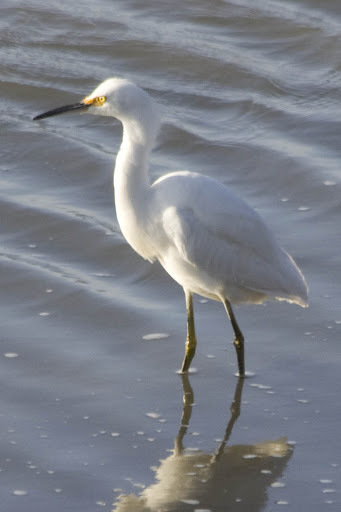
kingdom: Animalia
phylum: Chordata
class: Aves
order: Pelecaniformes
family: Ardeidae
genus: Egretta
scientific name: Egretta thula
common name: Snowy egret
